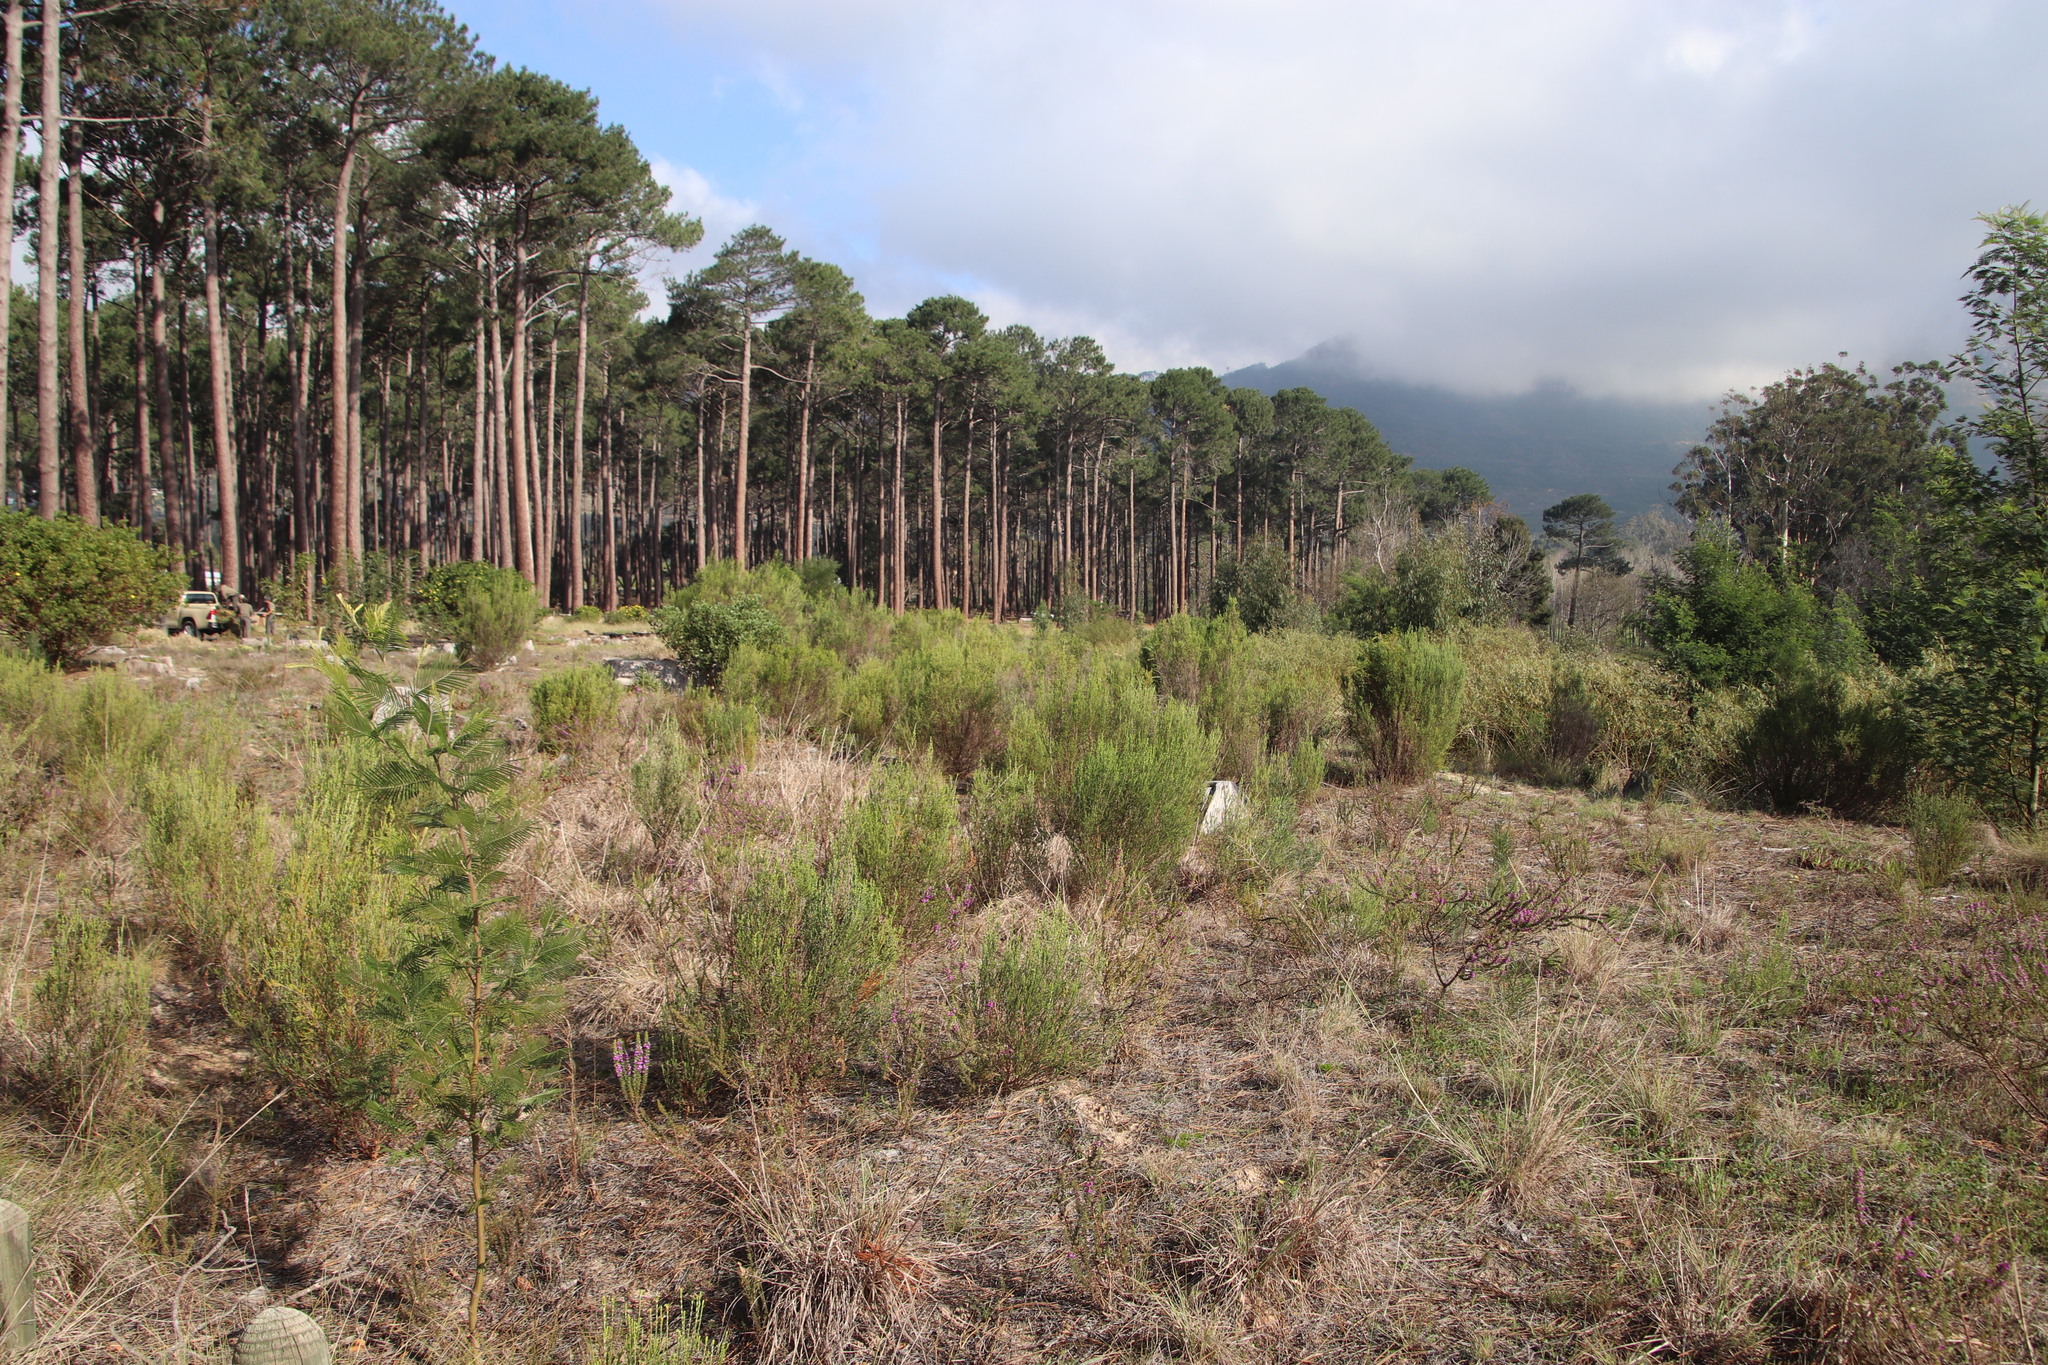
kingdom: Plantae
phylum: Tracheophyta
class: Magnoliopsida
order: Malvales
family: Thymelaeaceae
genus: Passerina
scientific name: Passerina corymbosa
